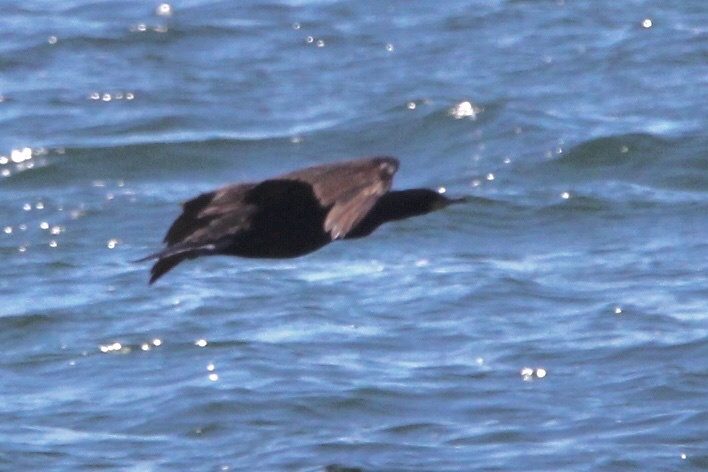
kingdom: Animalia
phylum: Chordata
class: Aves
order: Suliformes
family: Phalacrocoracidae
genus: Phalacrocorax
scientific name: Phalacrocorax auritus
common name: Double-crested cormorant
